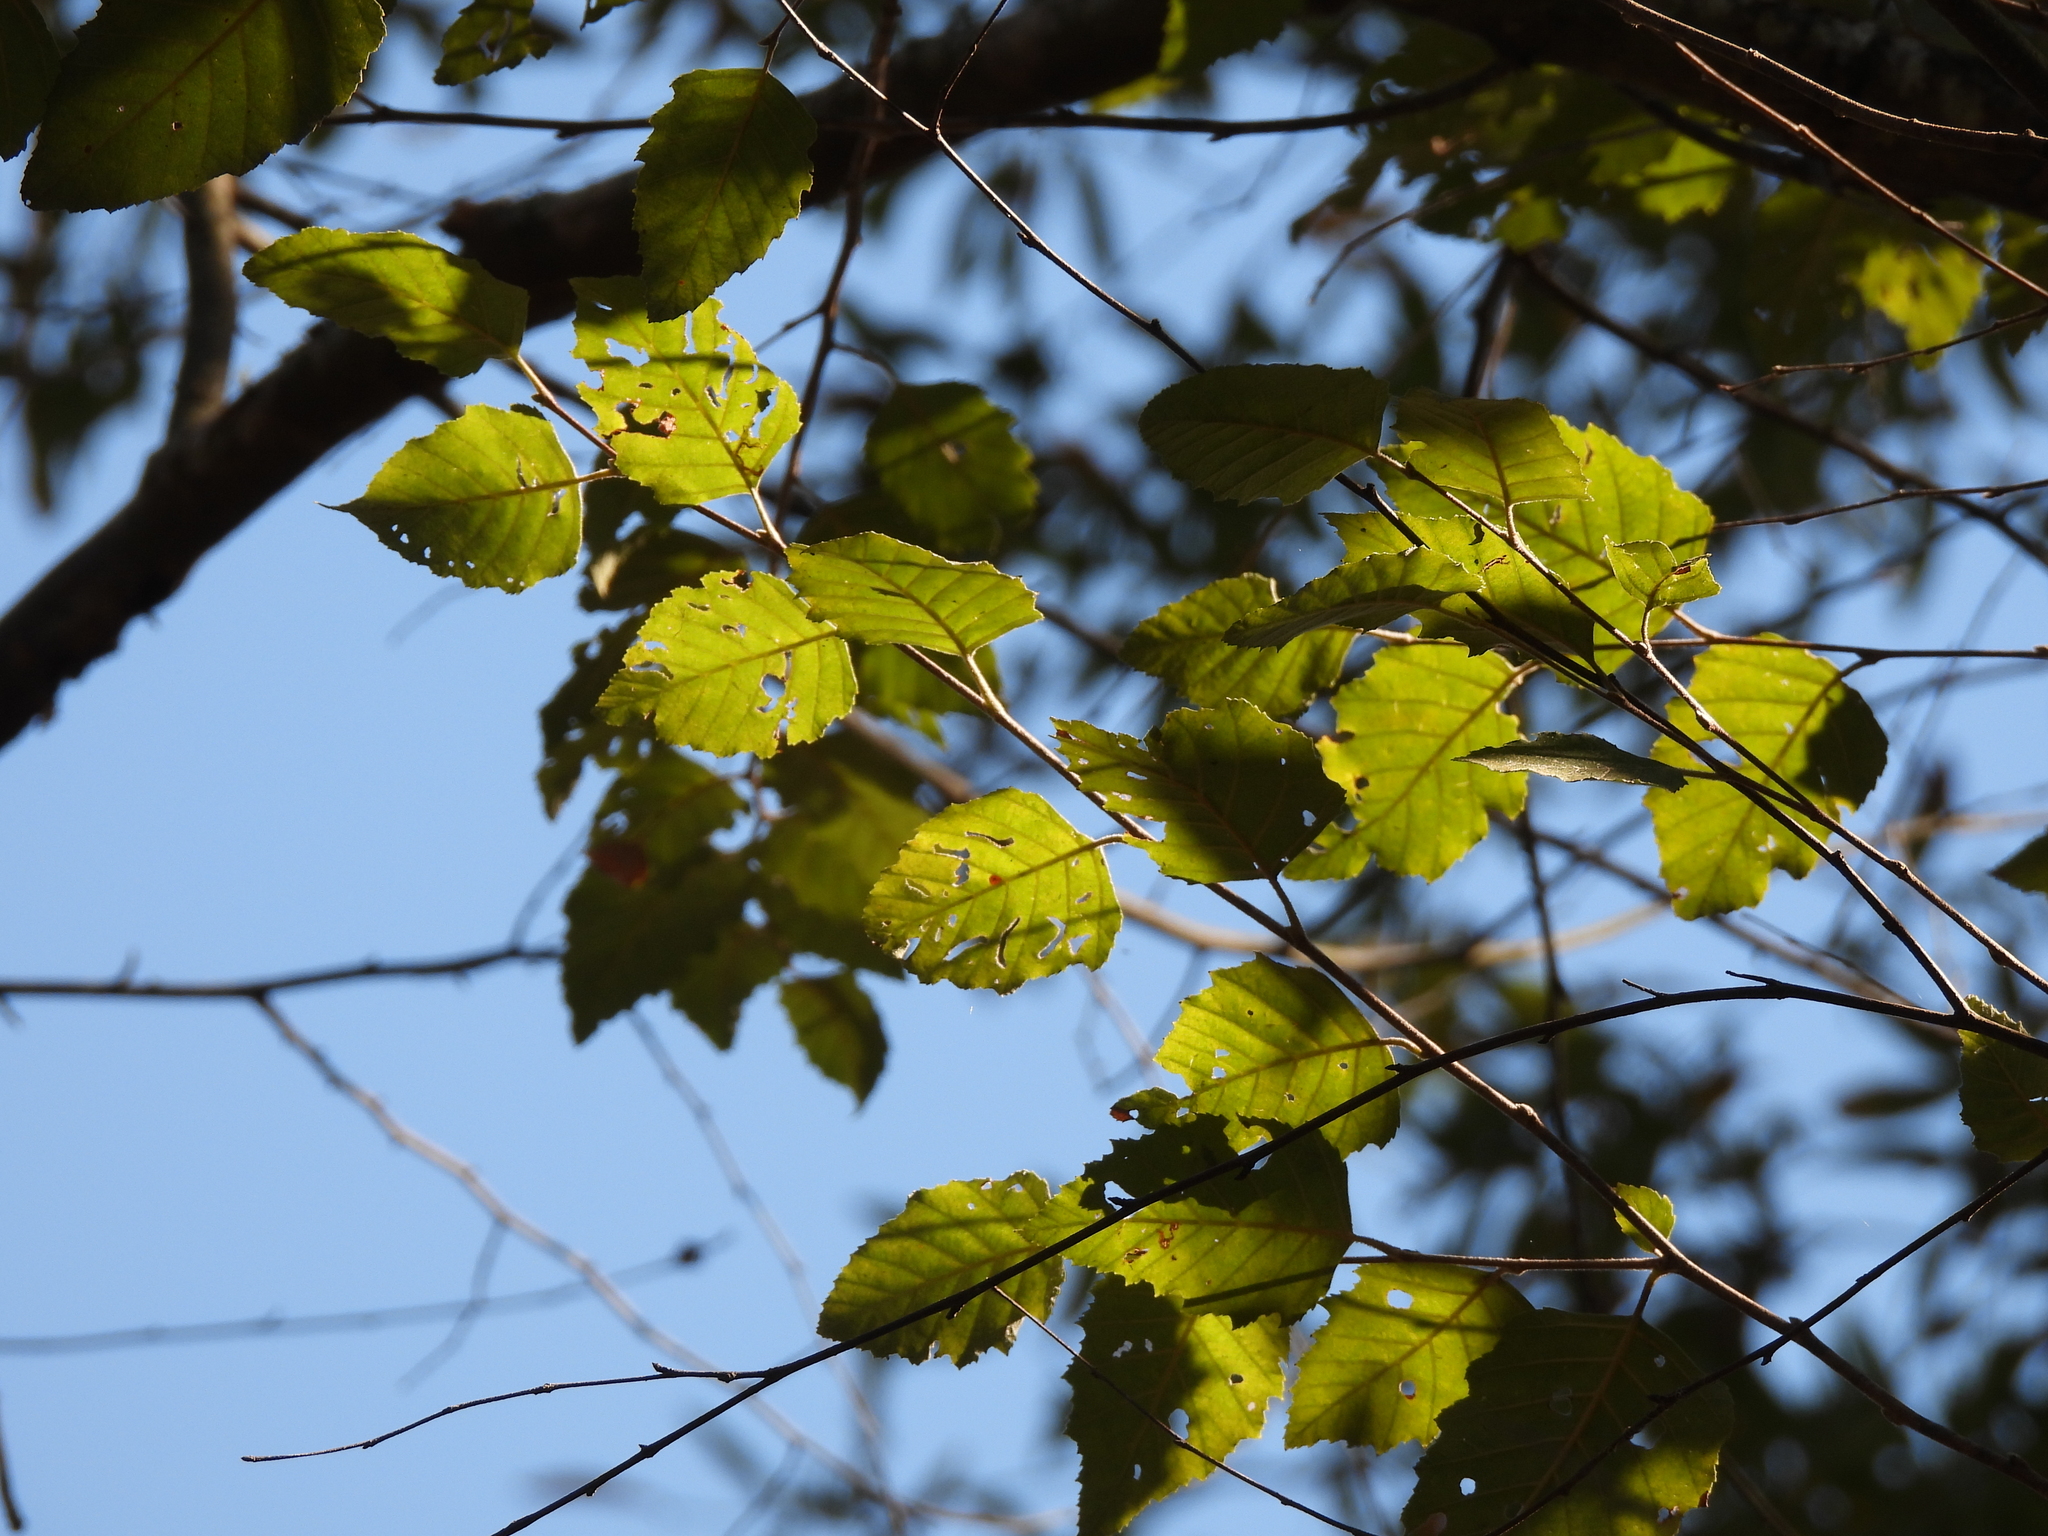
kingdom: Plantae
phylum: Tracheophyta
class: Magnoliopsida
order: Fagales
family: Betulaceae
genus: Betula
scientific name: Betula nigra
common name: Black birch
